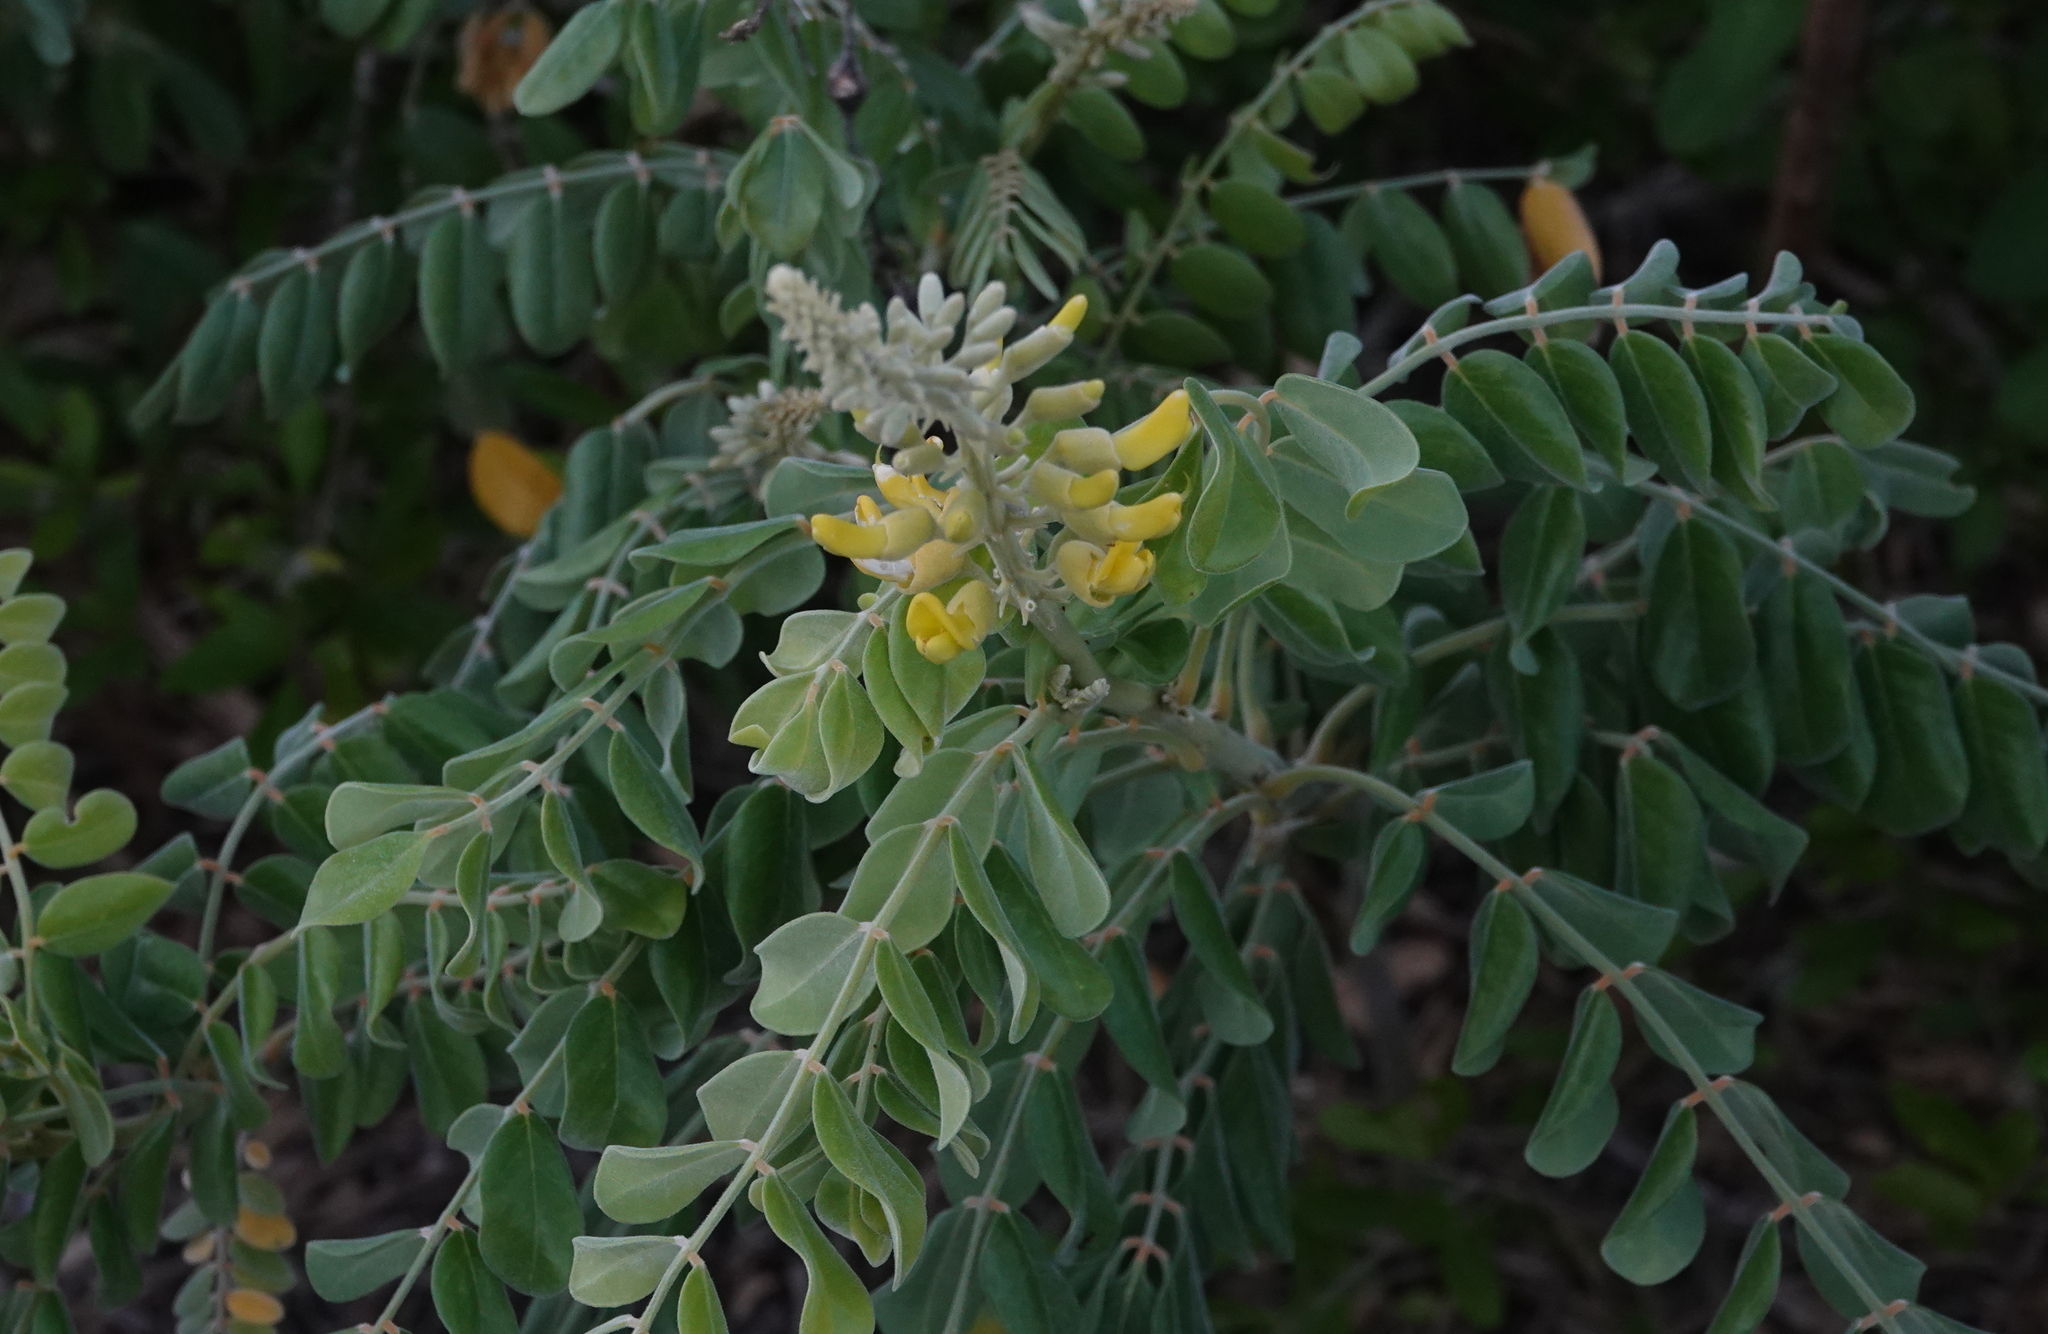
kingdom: Plantae
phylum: Tracheophyta
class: Magnoliopsida
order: Fabales
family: Fabaceae
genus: Sophora
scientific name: Sophora tomentosa
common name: Yellow necklacepod
